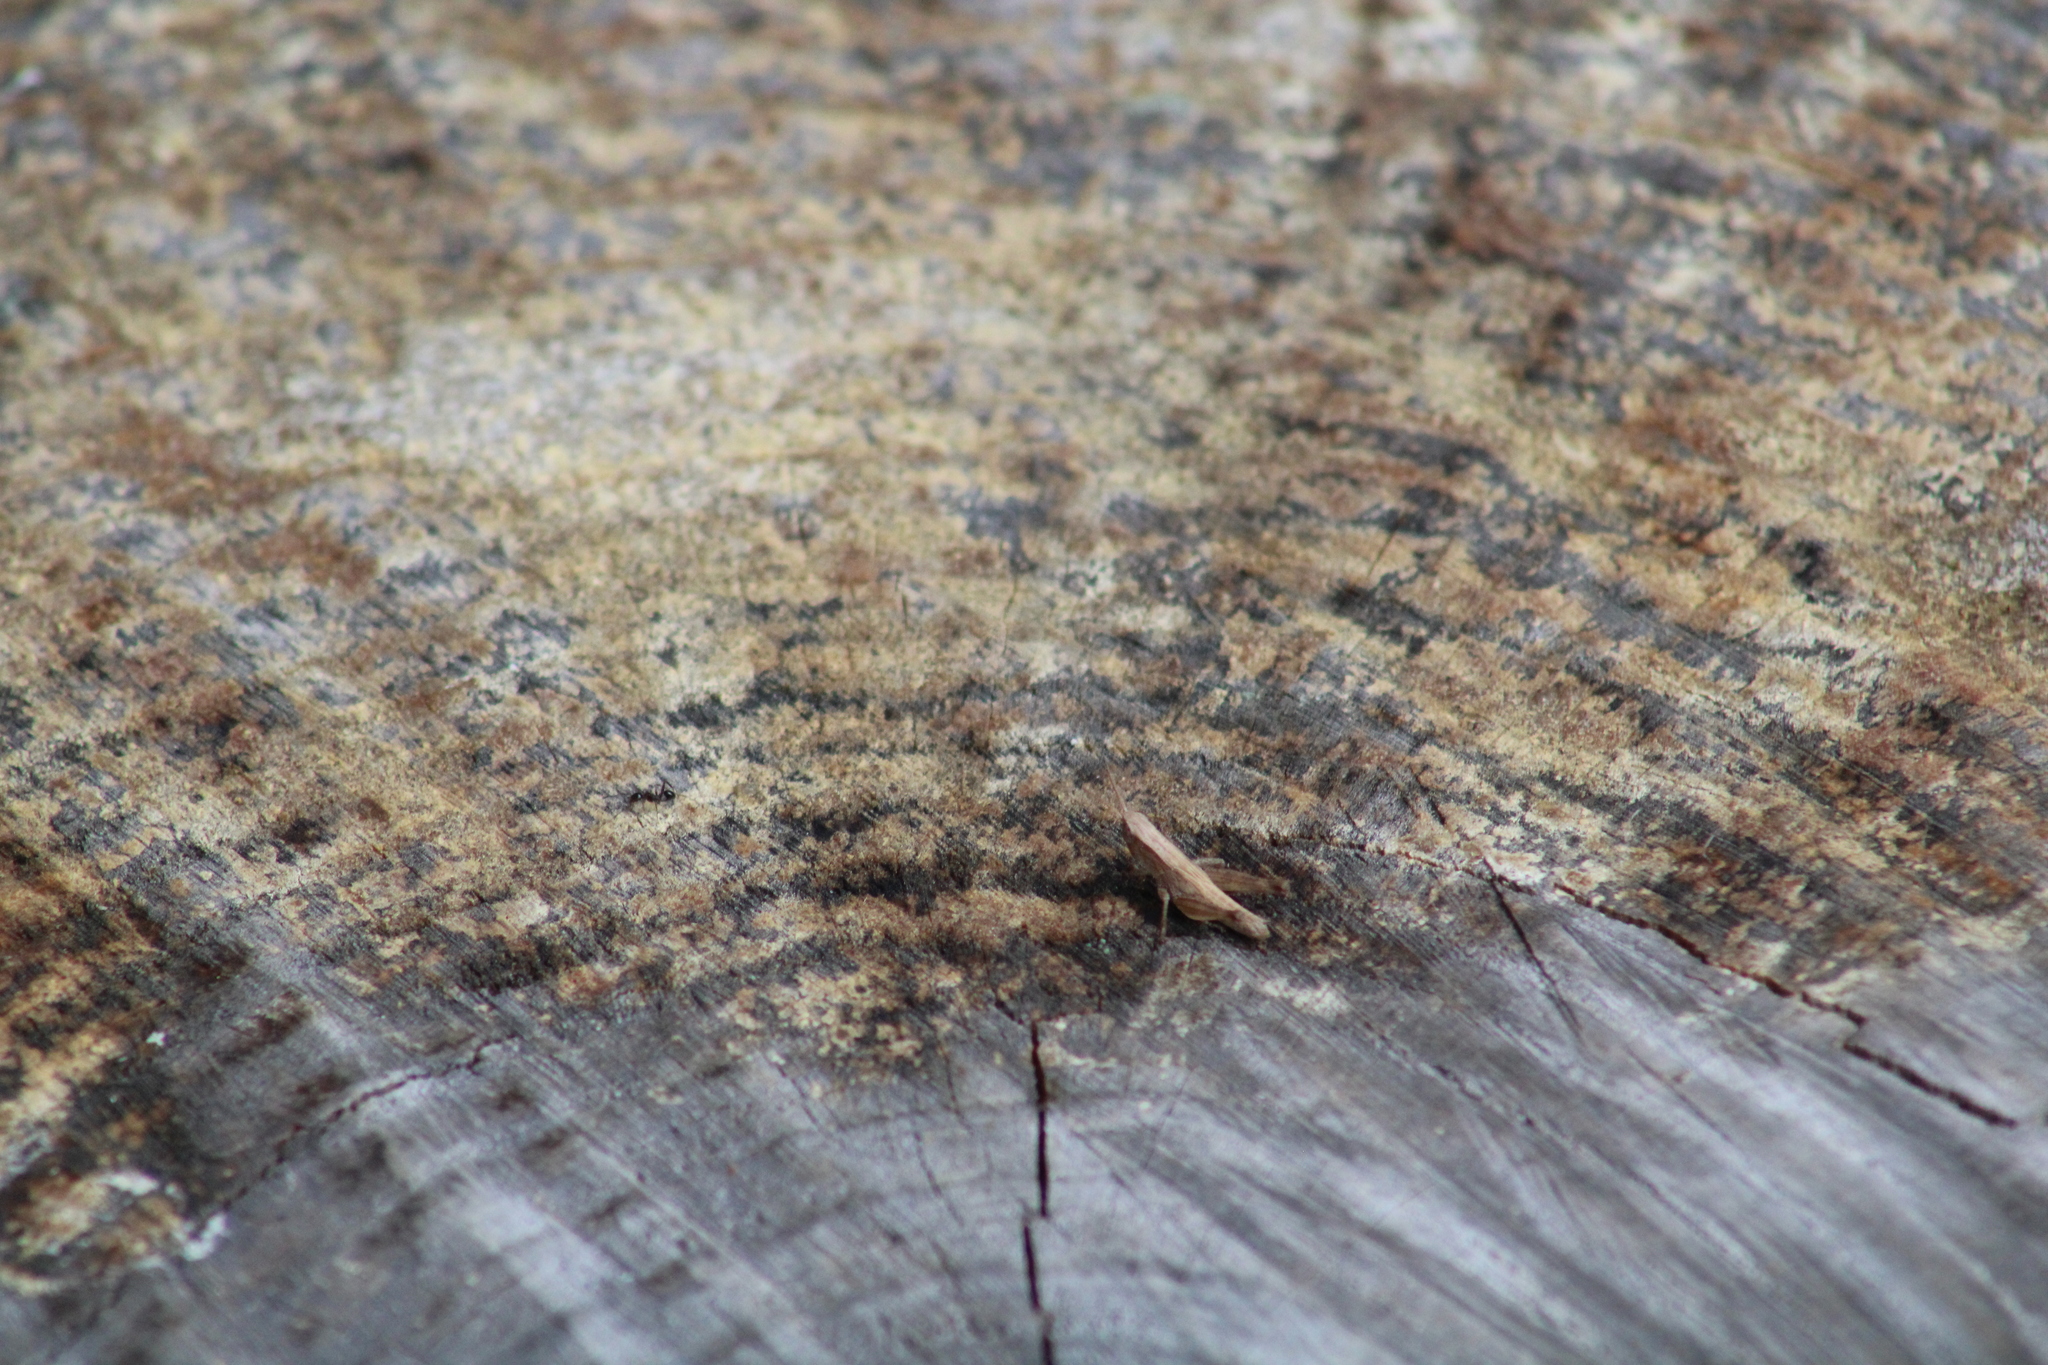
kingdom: Animalia
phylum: Arthropoda
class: Insecta
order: Orthoptera
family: Acrididae
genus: Dichromorpha
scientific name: Dichromorpha viridis
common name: Short-winged green grasshopper
